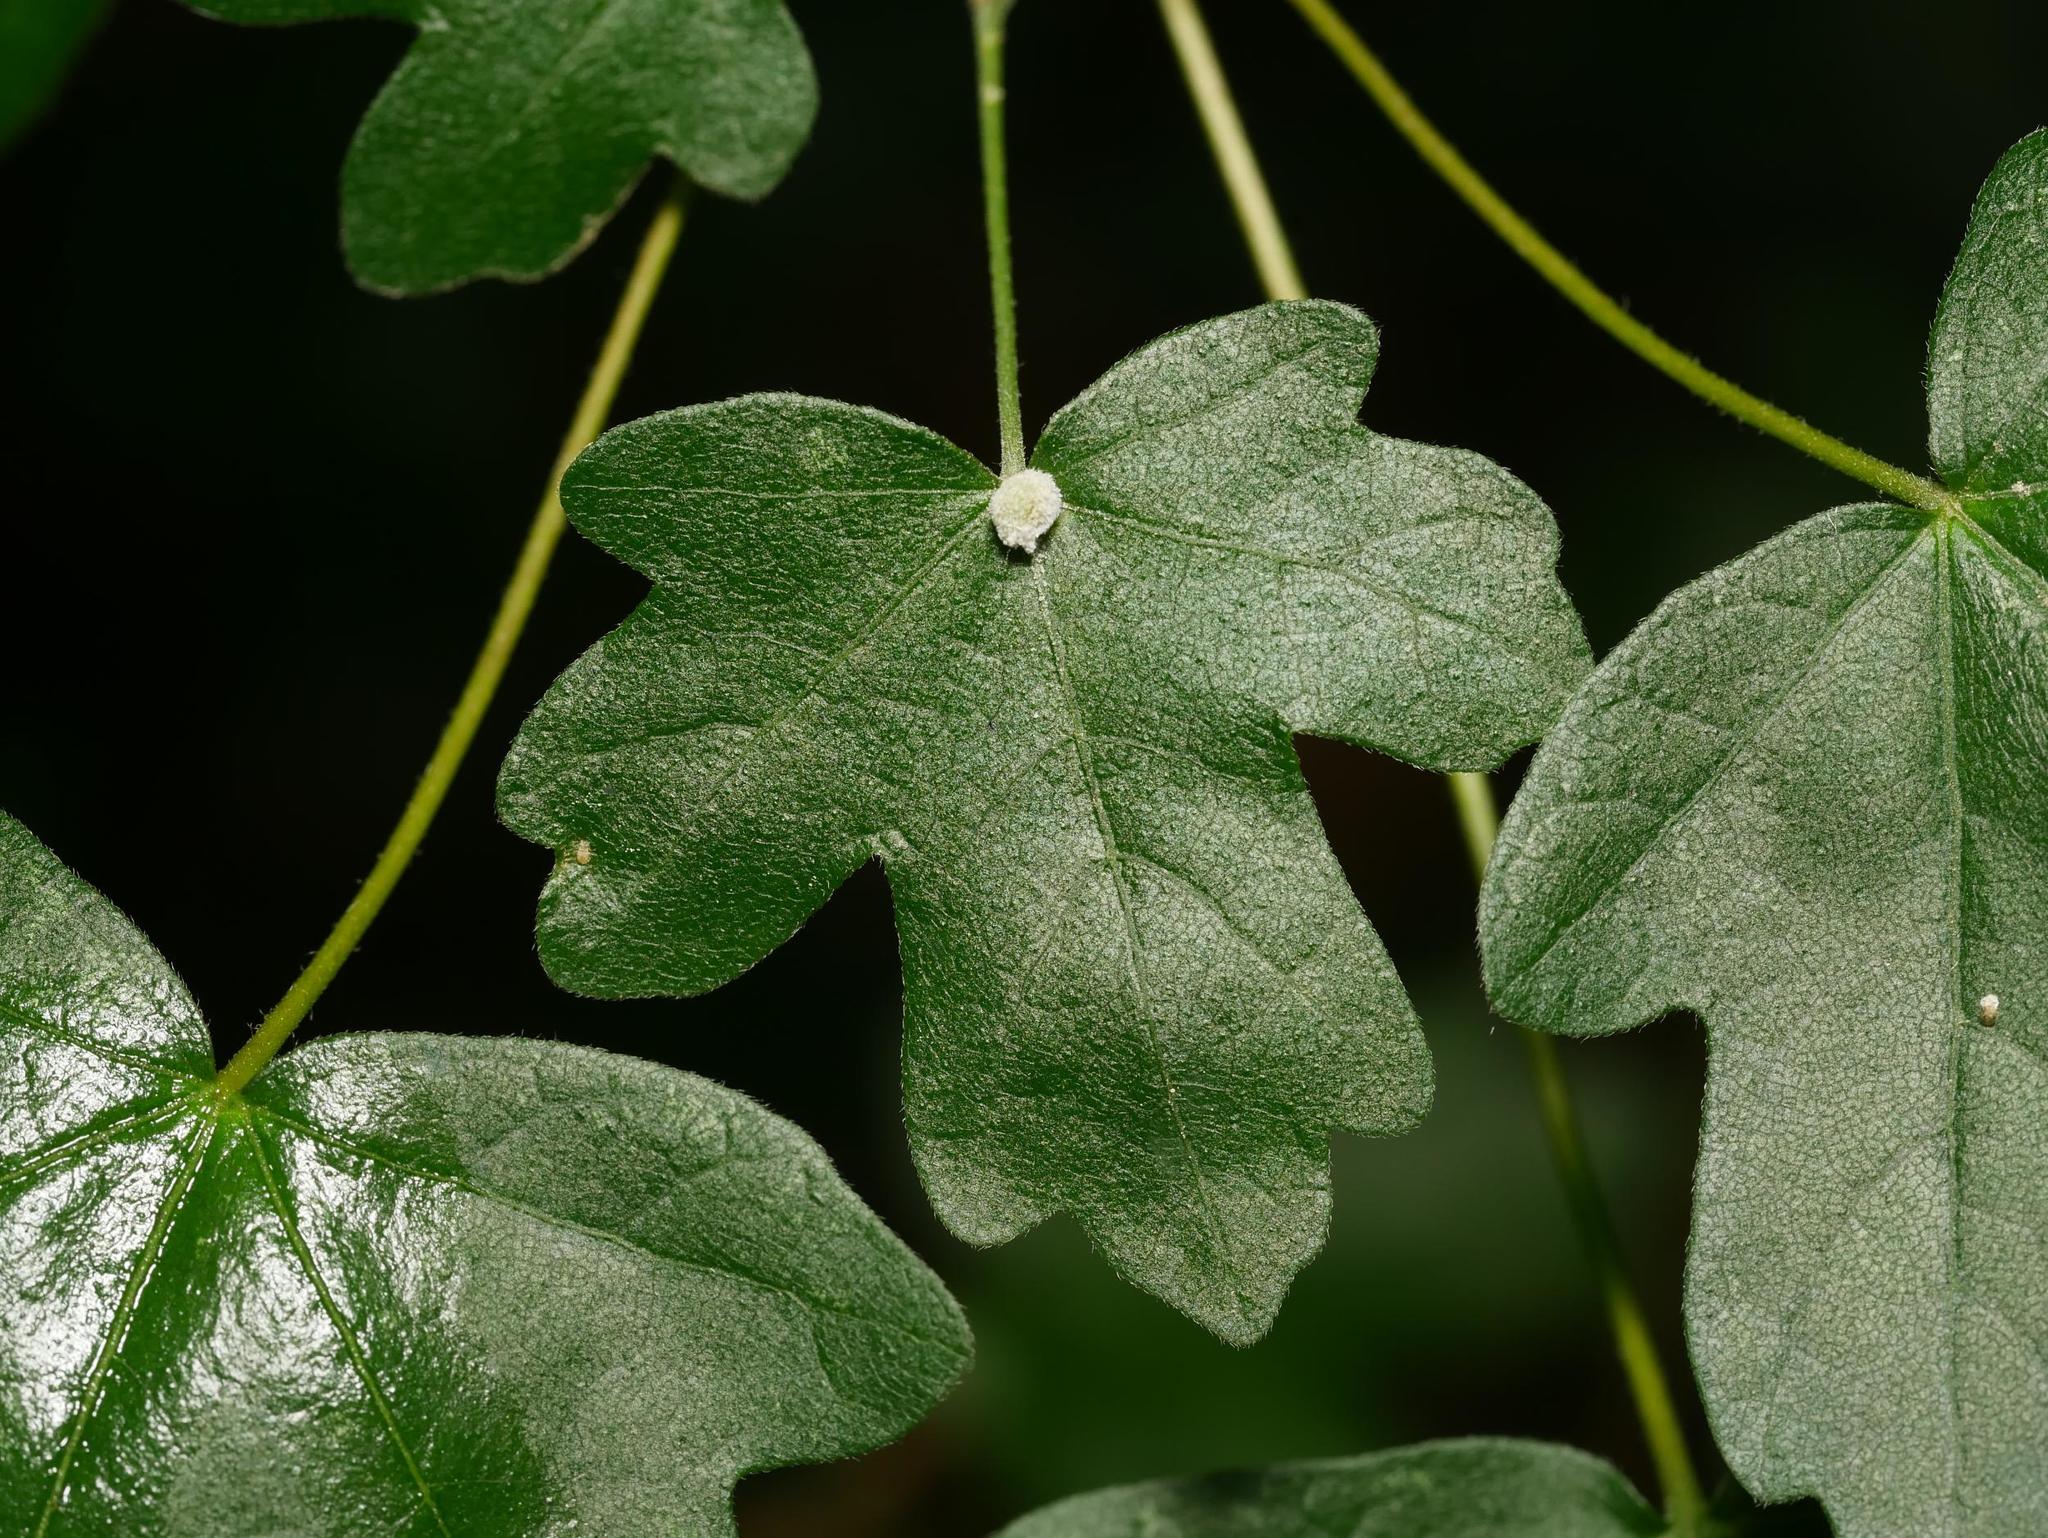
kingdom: Plantae
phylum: Tracheophyta
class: Magnoliopsida
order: Sapindales
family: Sapindaceae
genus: Acer
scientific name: Acer campestre
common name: Field maple
